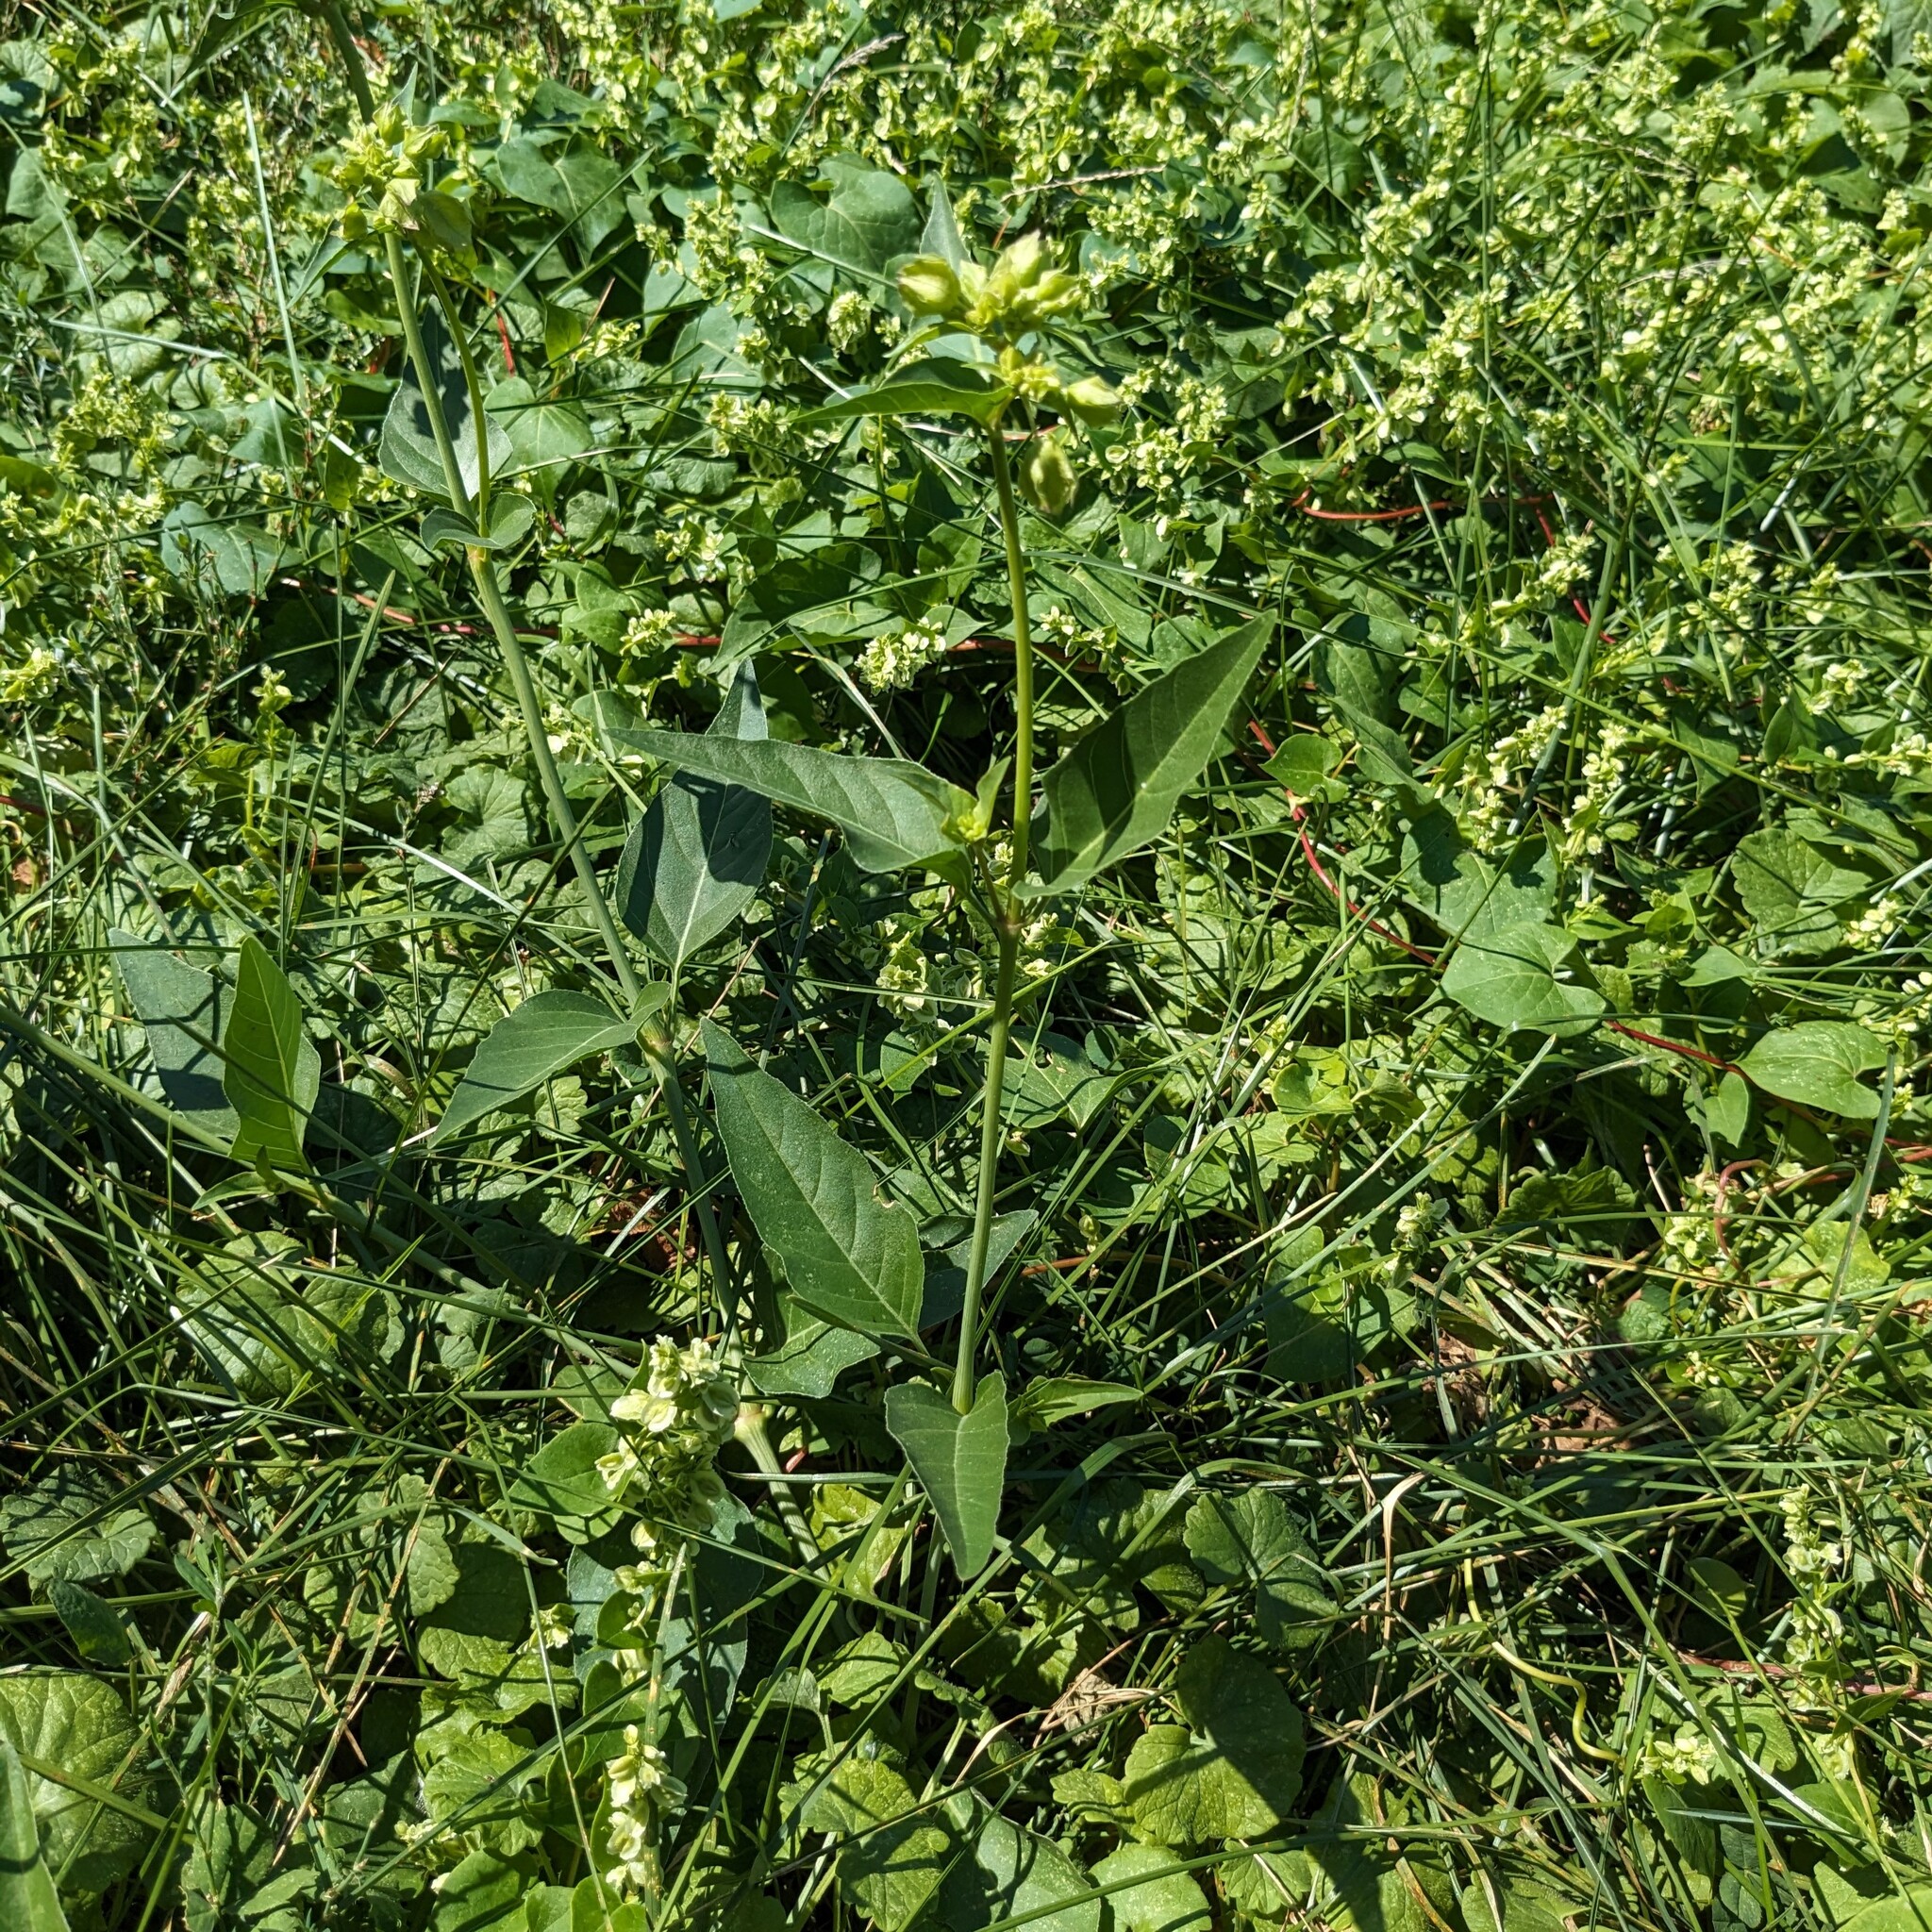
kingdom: Plantae
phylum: Tracheophyta
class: Magnoliopsida
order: Caryophyllales
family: Nyctaginaceae
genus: Mirabilis
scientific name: Mirabilis nyctaginea
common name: Umbrella wort
